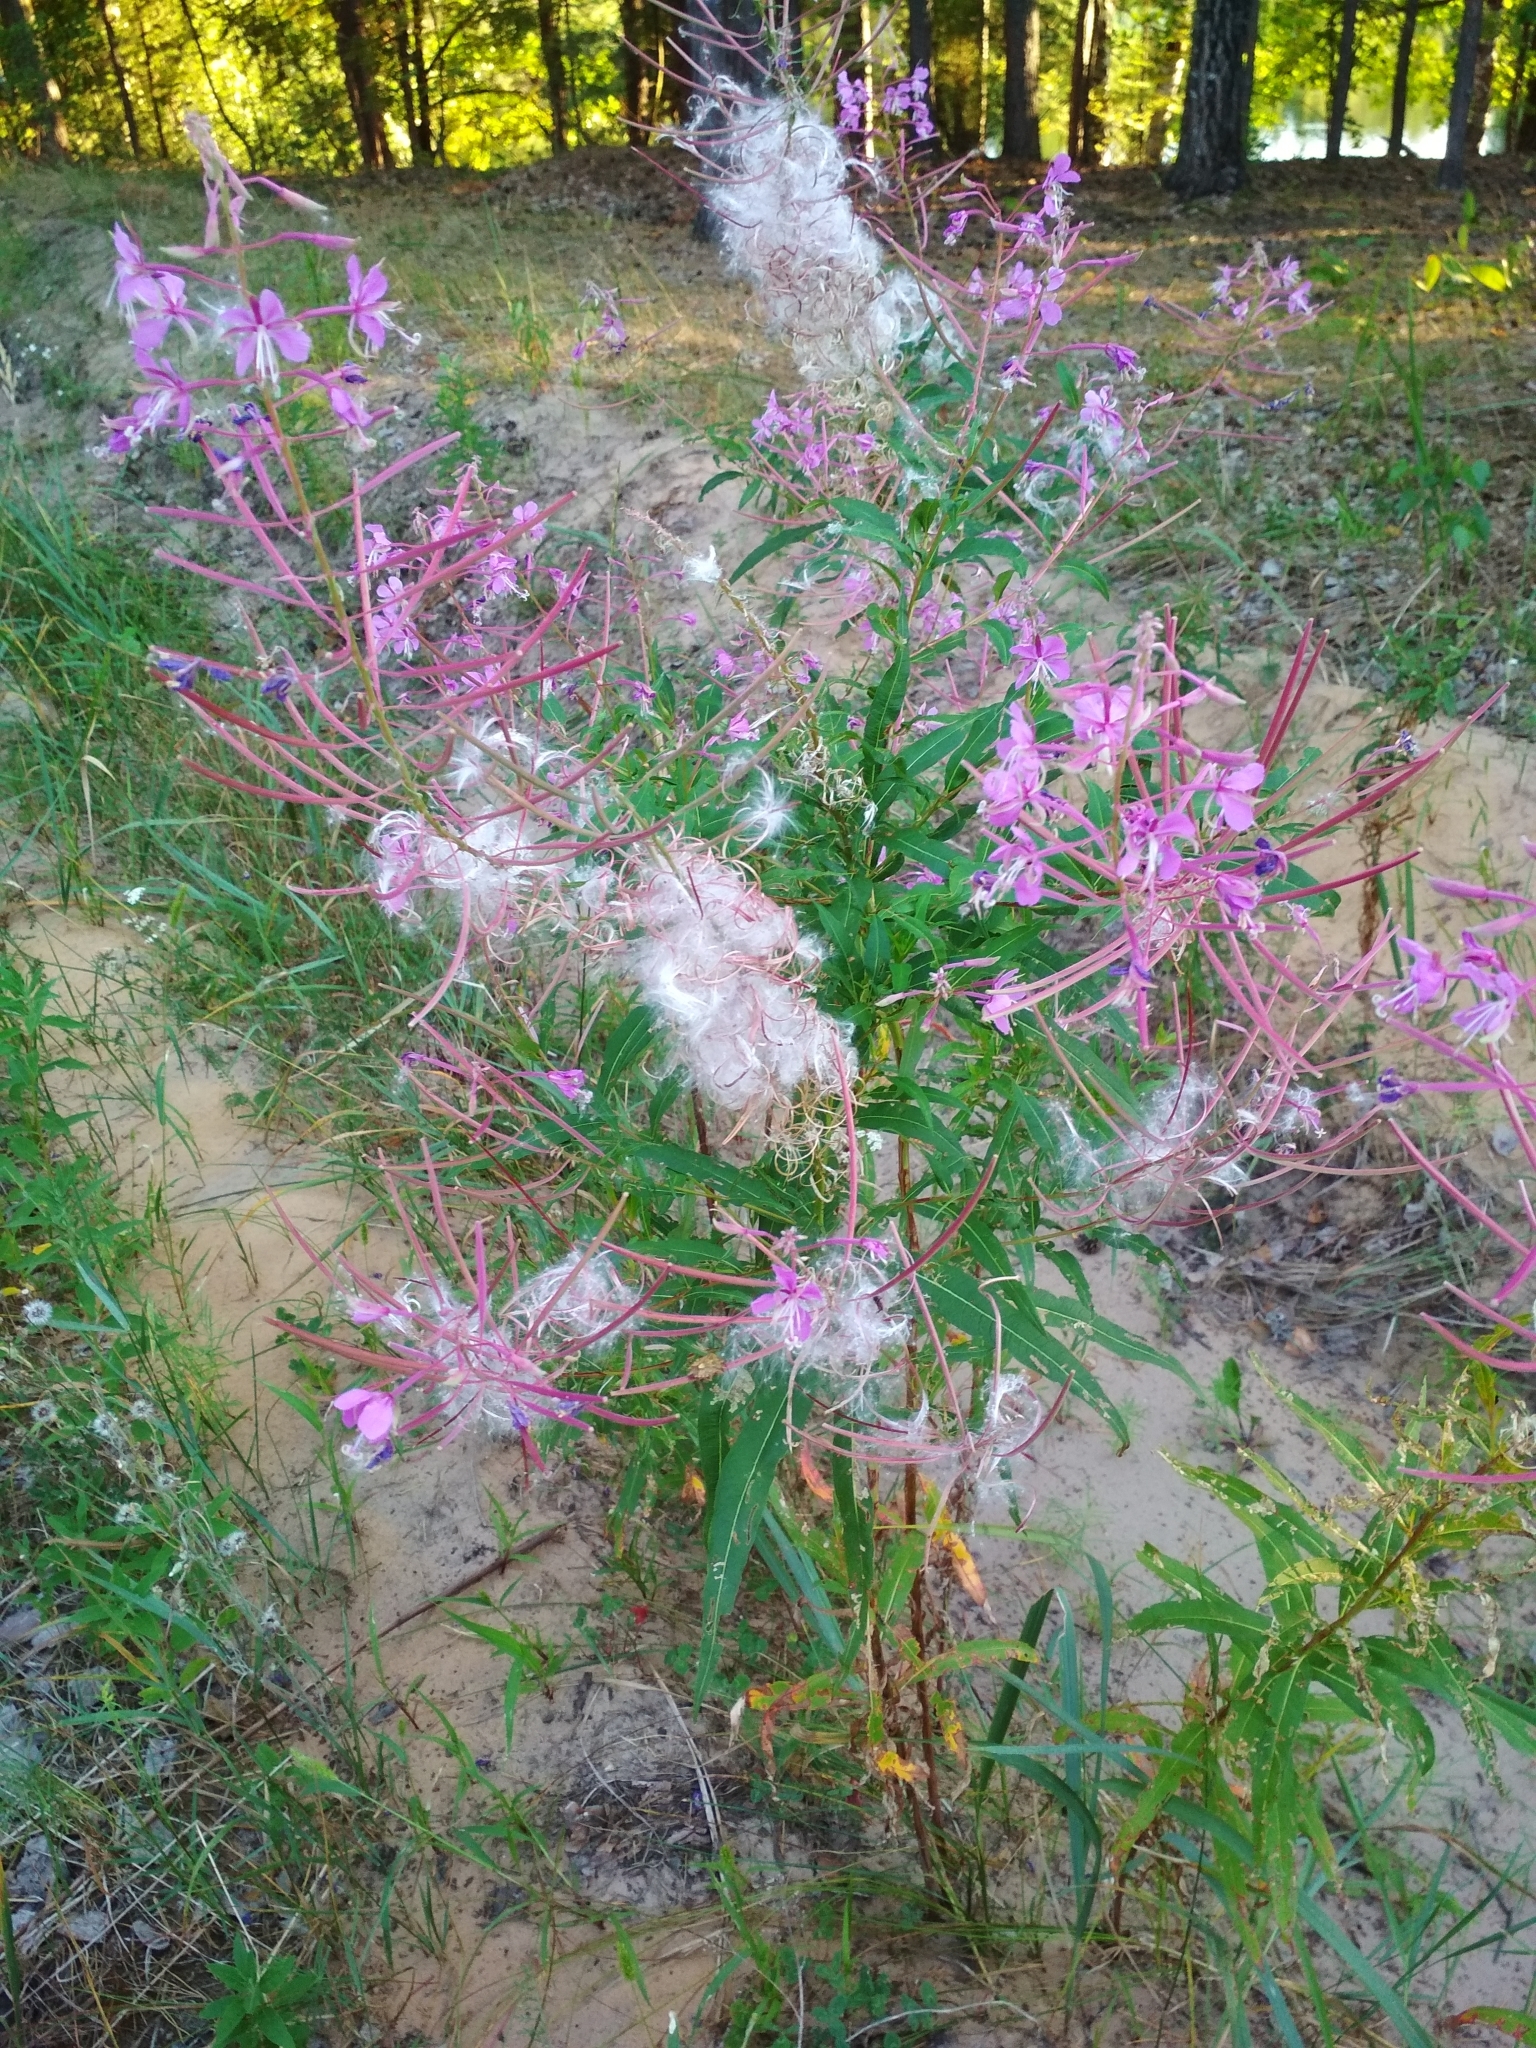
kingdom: Plantae
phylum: Tracheophyta
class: Magnoliopsida
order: Myrtales
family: Onagraceae
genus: Chamaenerion
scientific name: Chamaenerion angustifolium
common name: Fireweed
